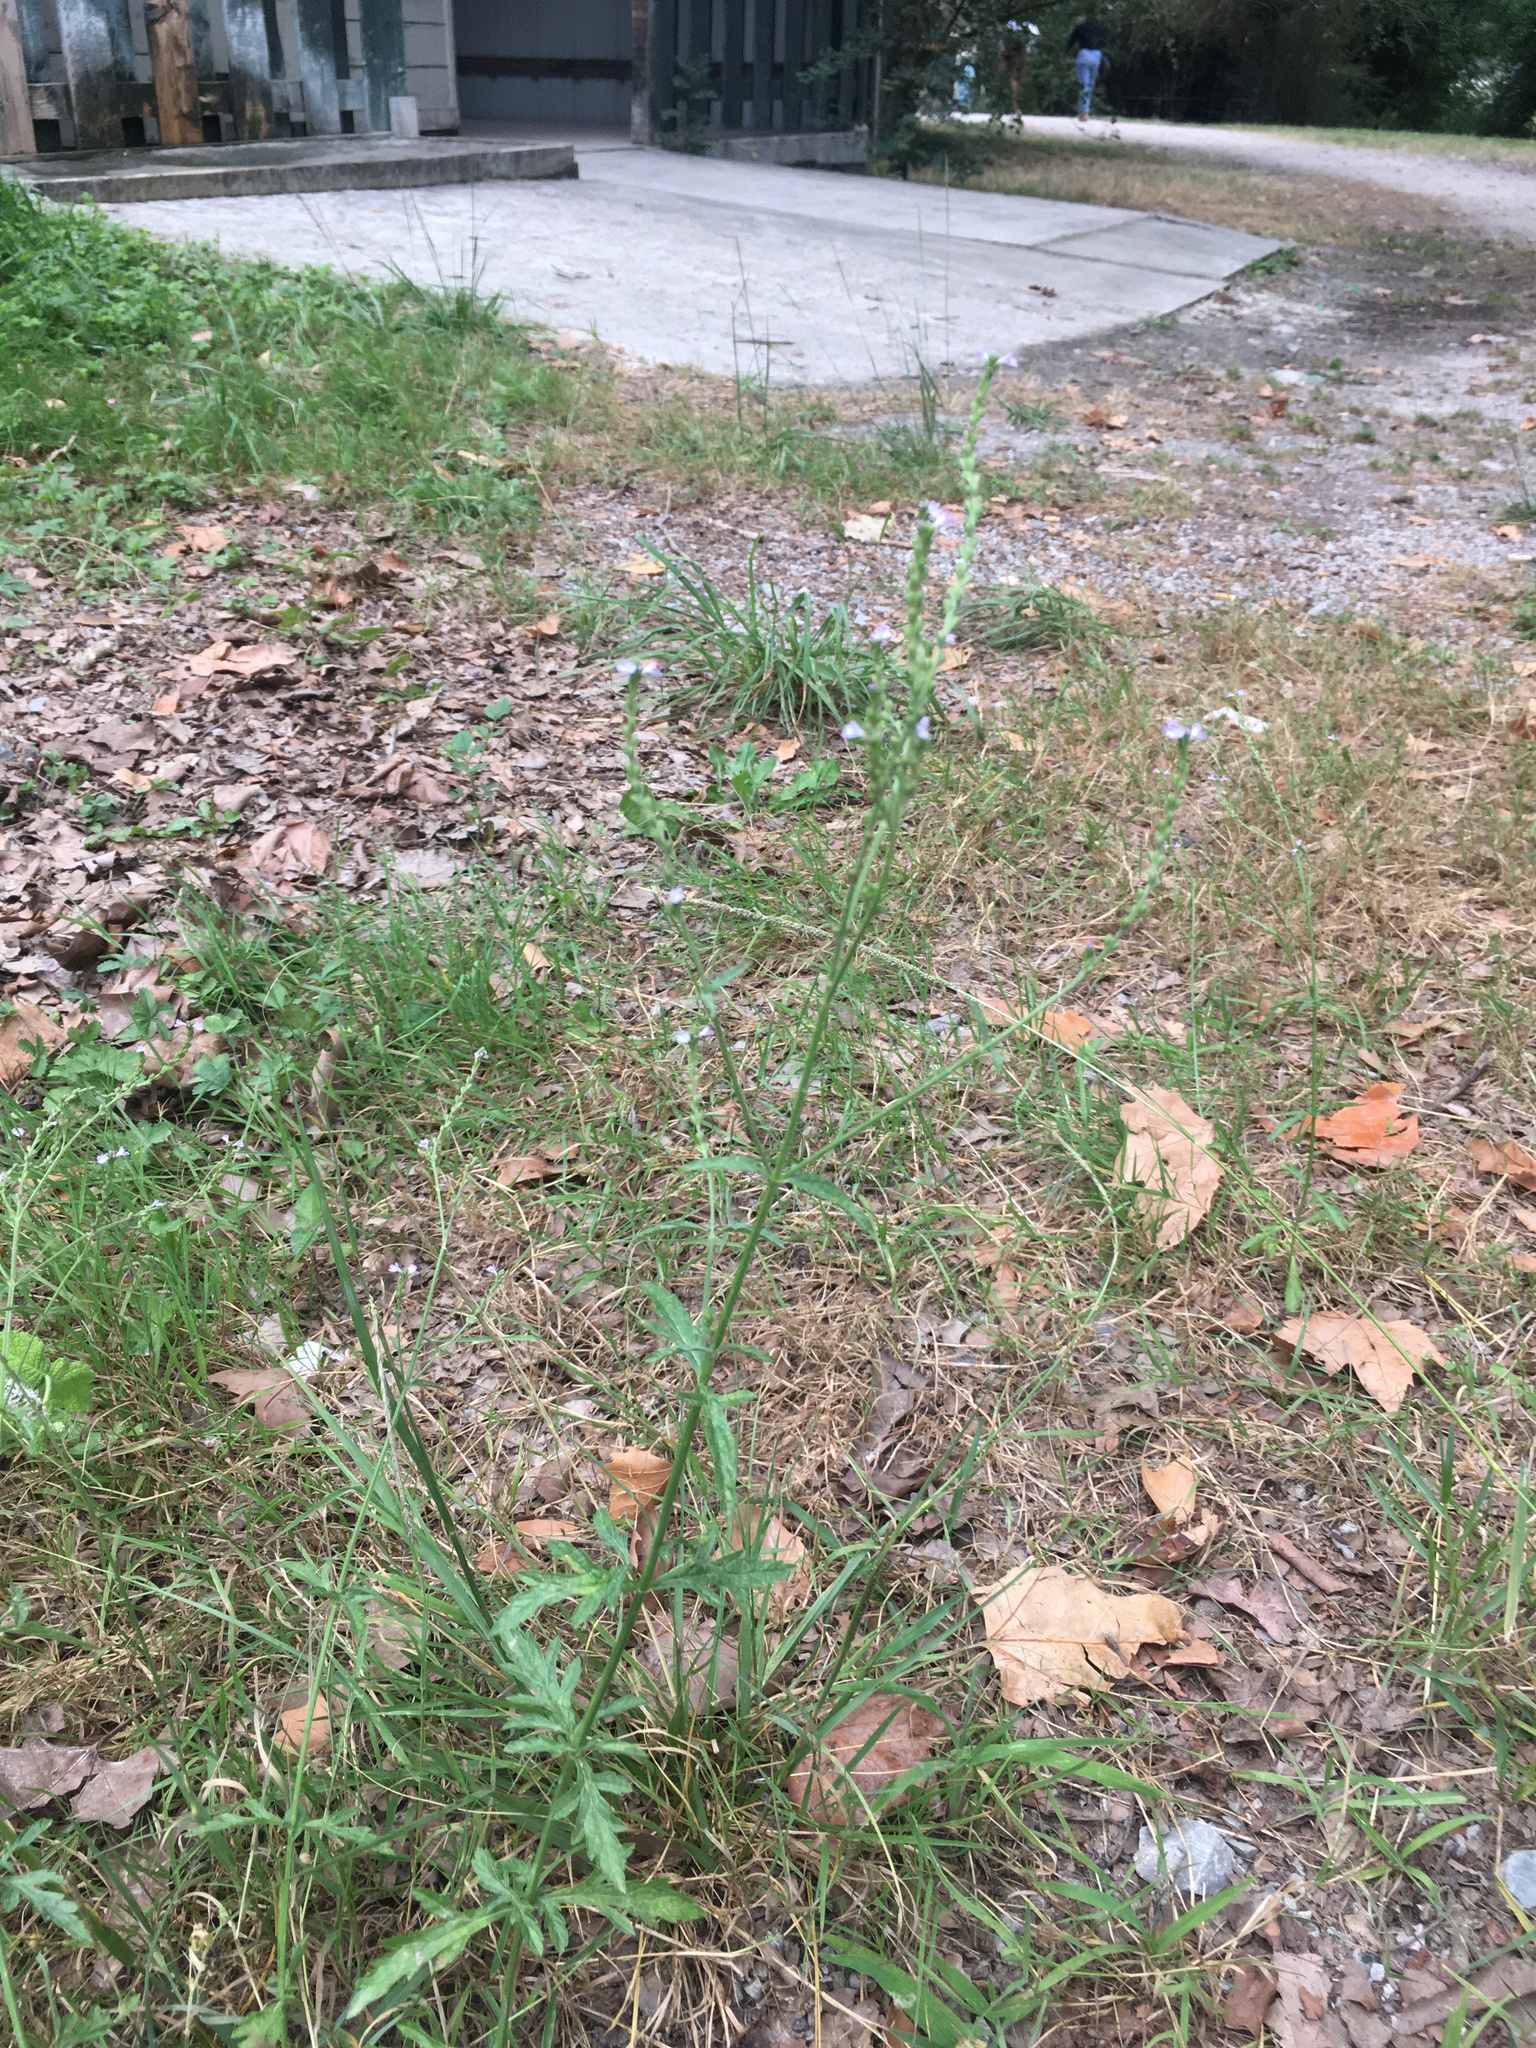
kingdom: Plantae
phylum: Tracheophyta
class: Magnoliopsida
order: Lamiales
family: Verbenaceae
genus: Verbena
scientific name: Verbena officinalis
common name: Vervain
